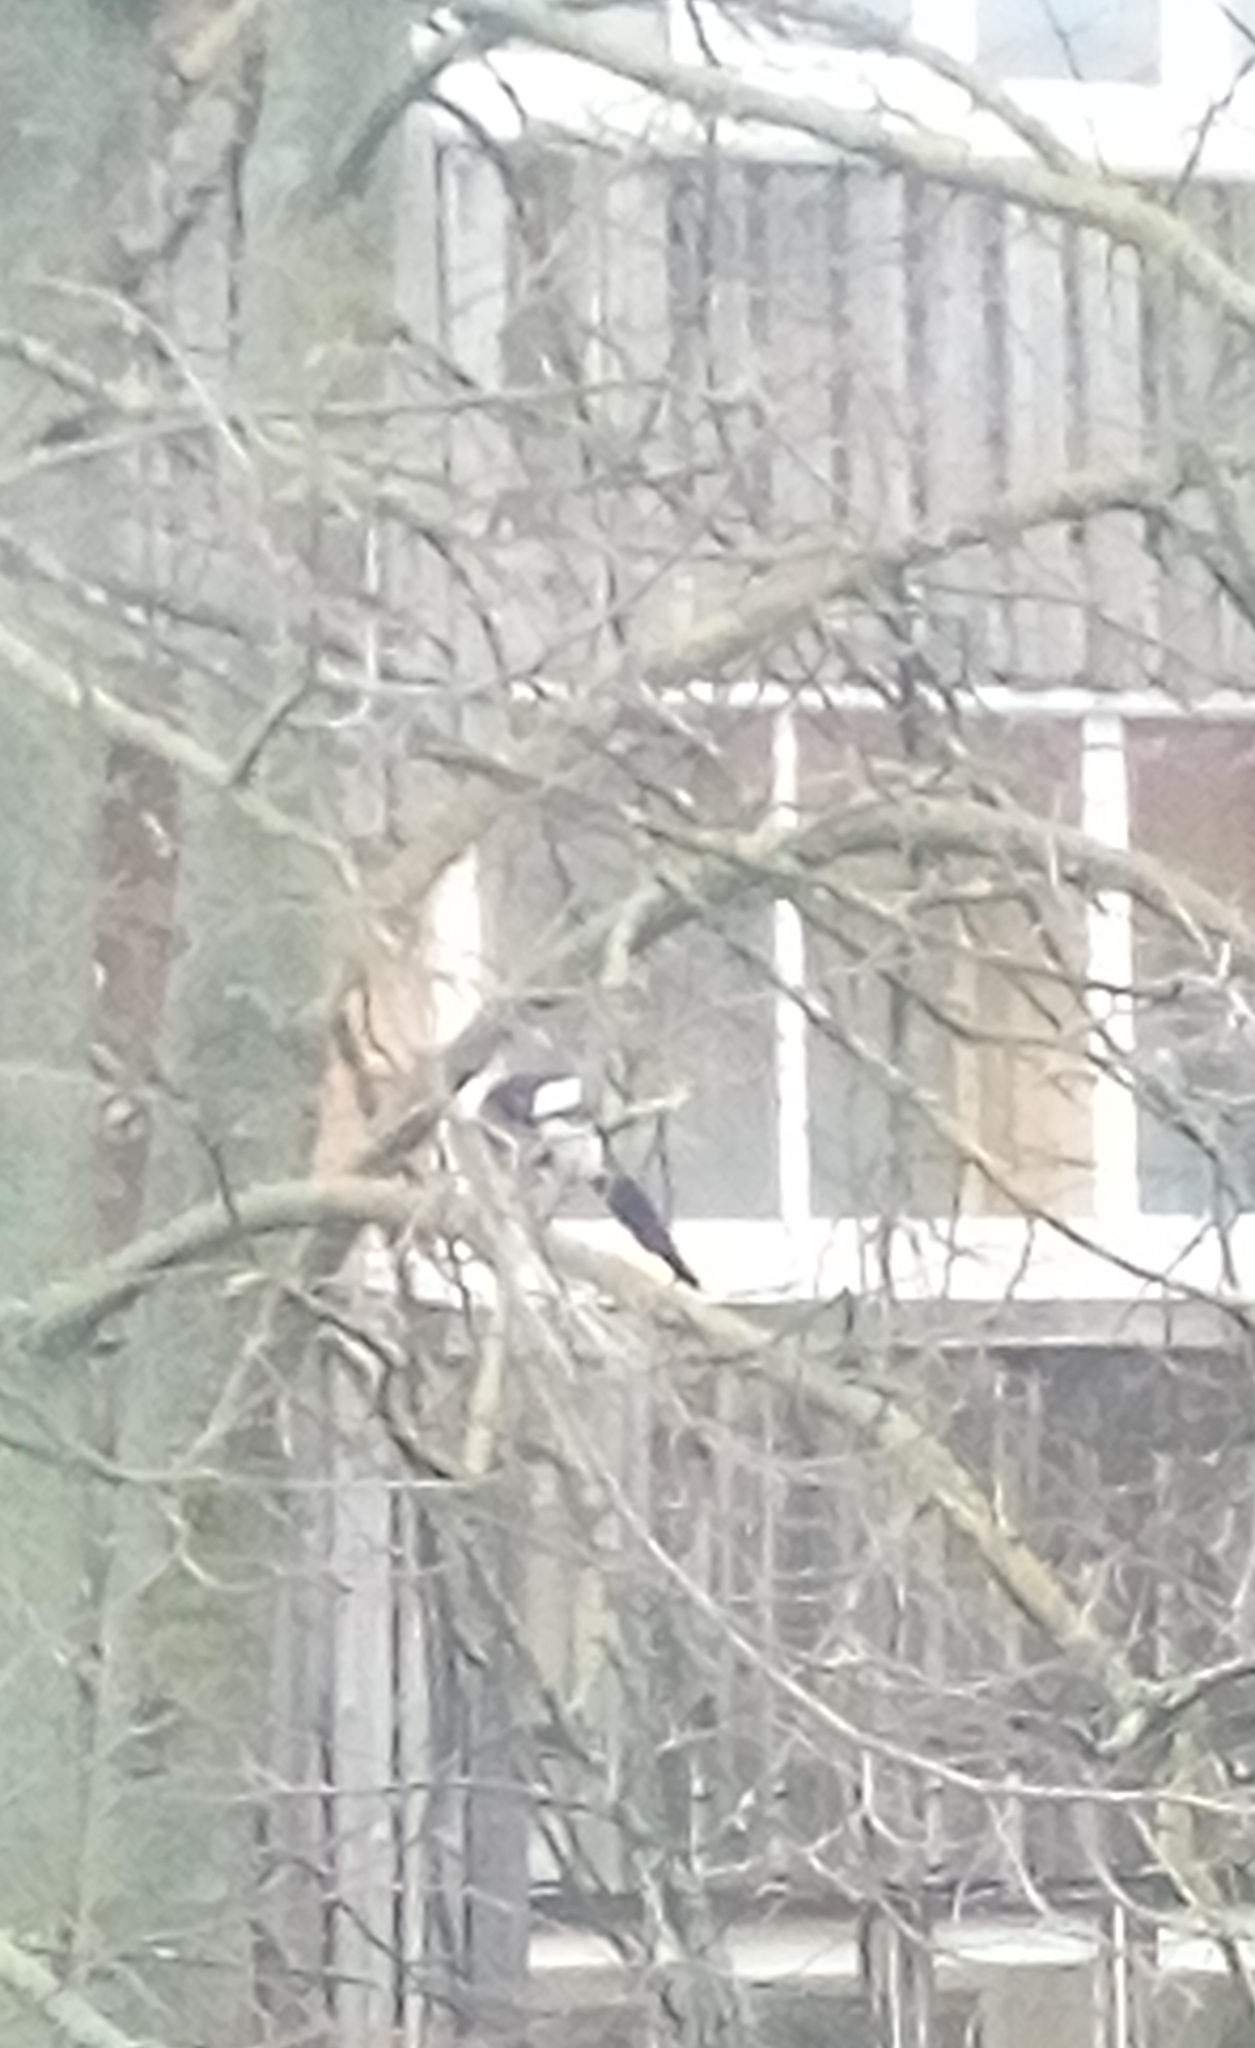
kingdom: Animalia
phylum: Chordata
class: Aves
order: Passeriformes
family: Corvidae
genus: Pica
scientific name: Pica pica
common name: Eurasian magpie
